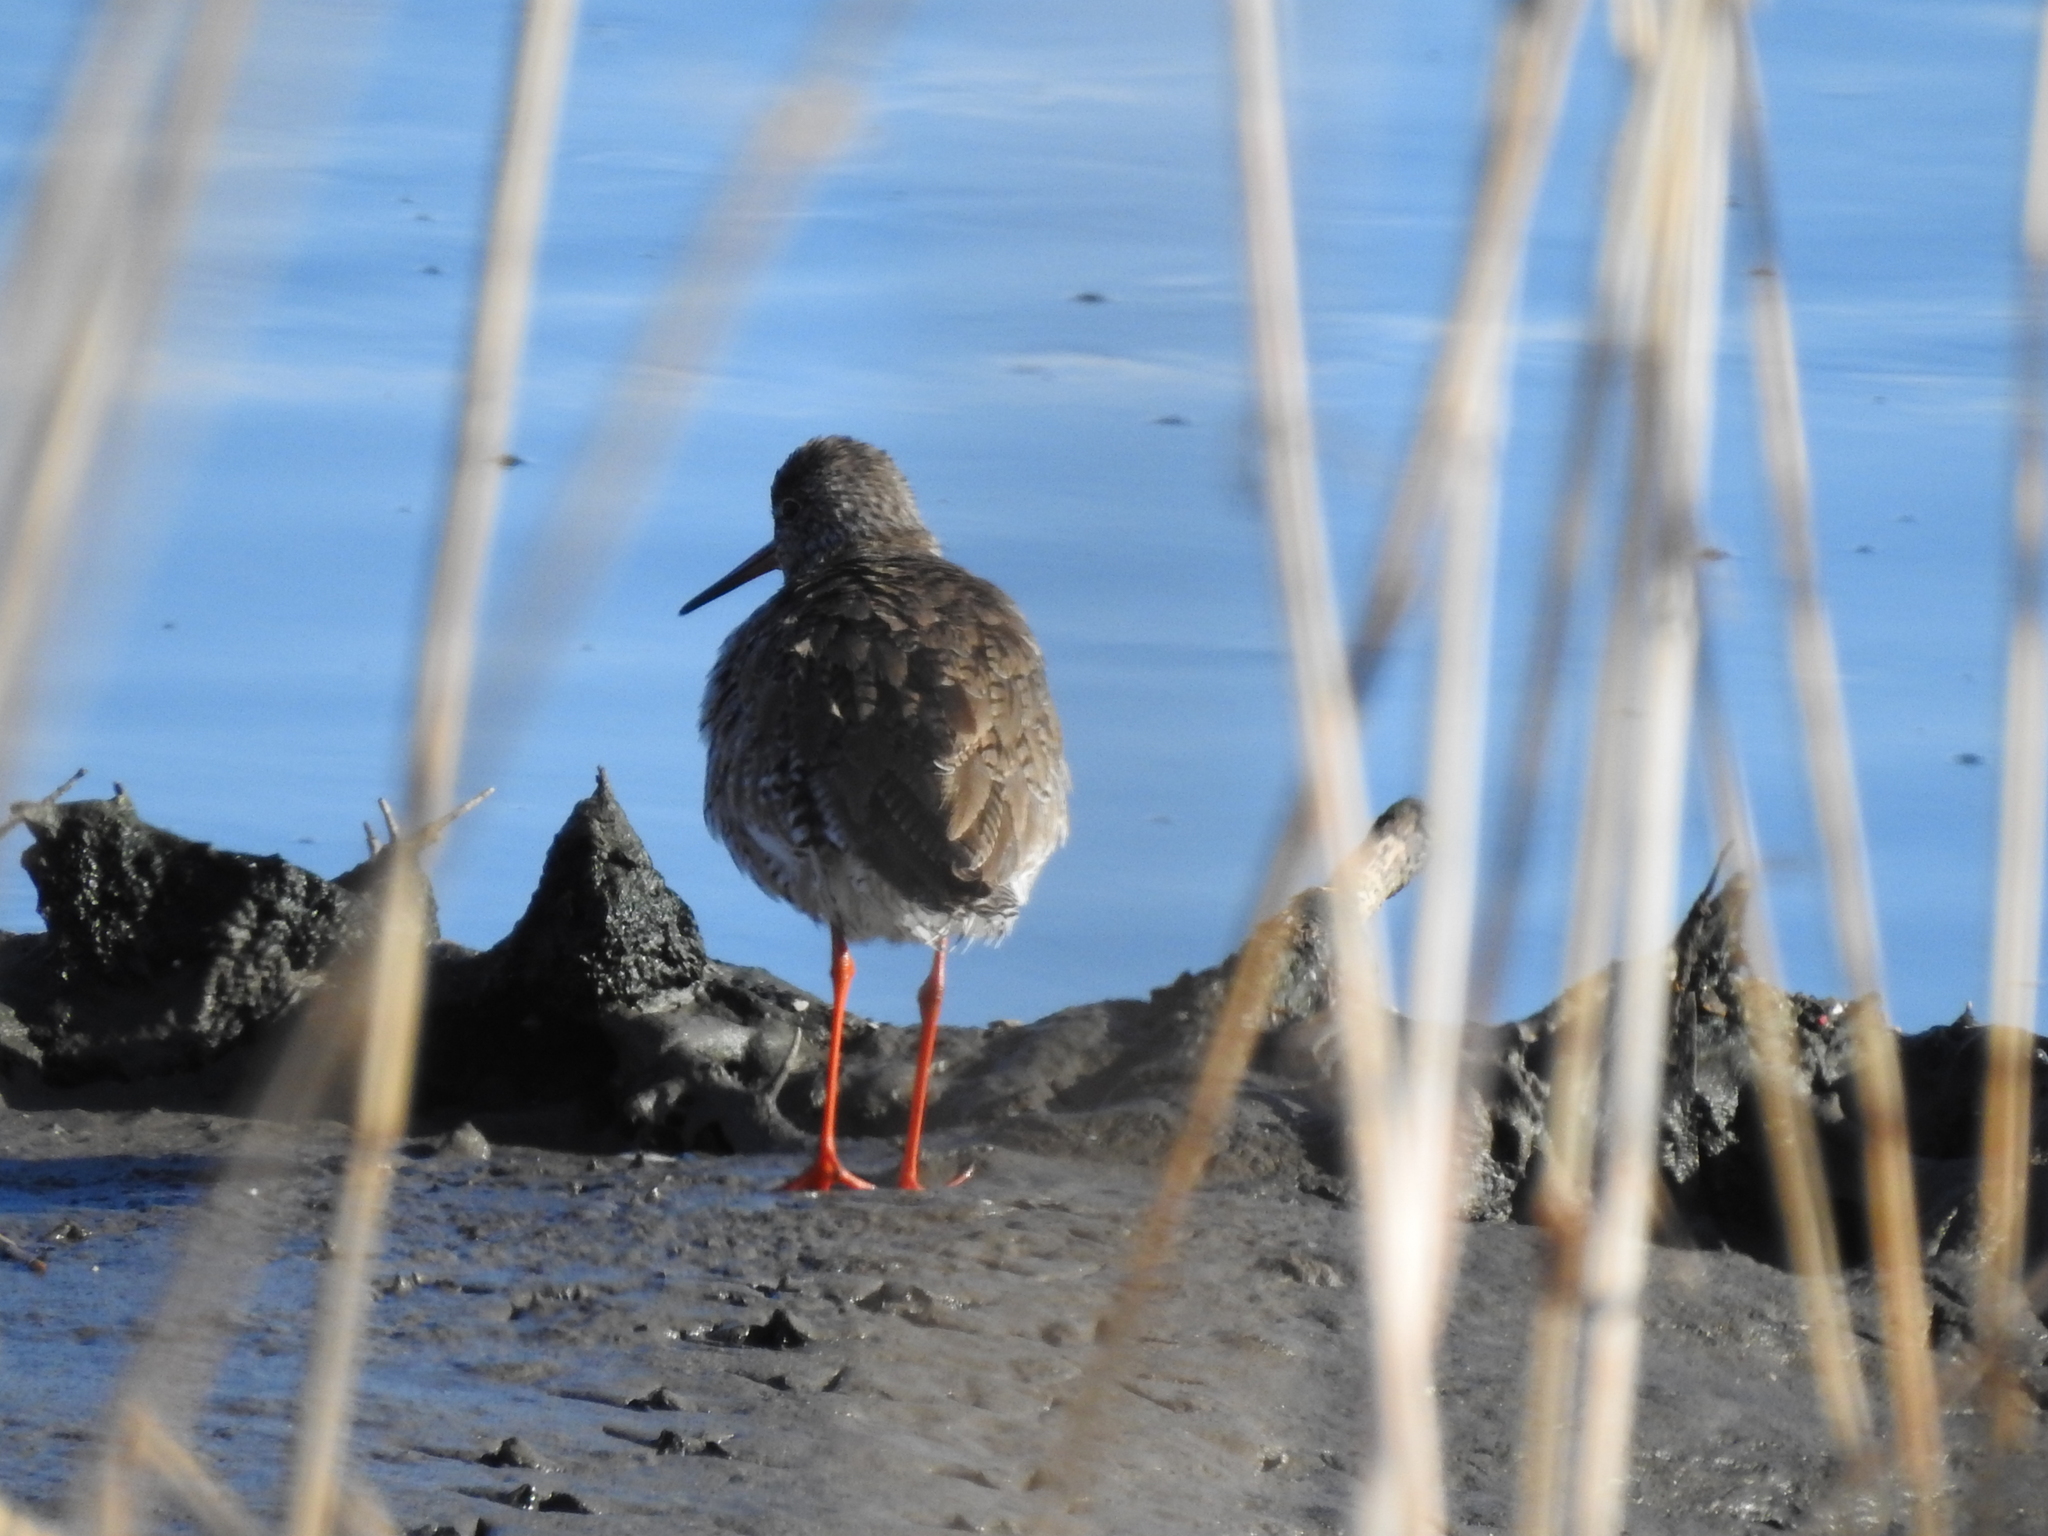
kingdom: Animalia
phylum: Chordata
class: Aves
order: Charadriiformes
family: Scolopacidae
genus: Tringa
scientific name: Tringa totanus
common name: Common redshank
